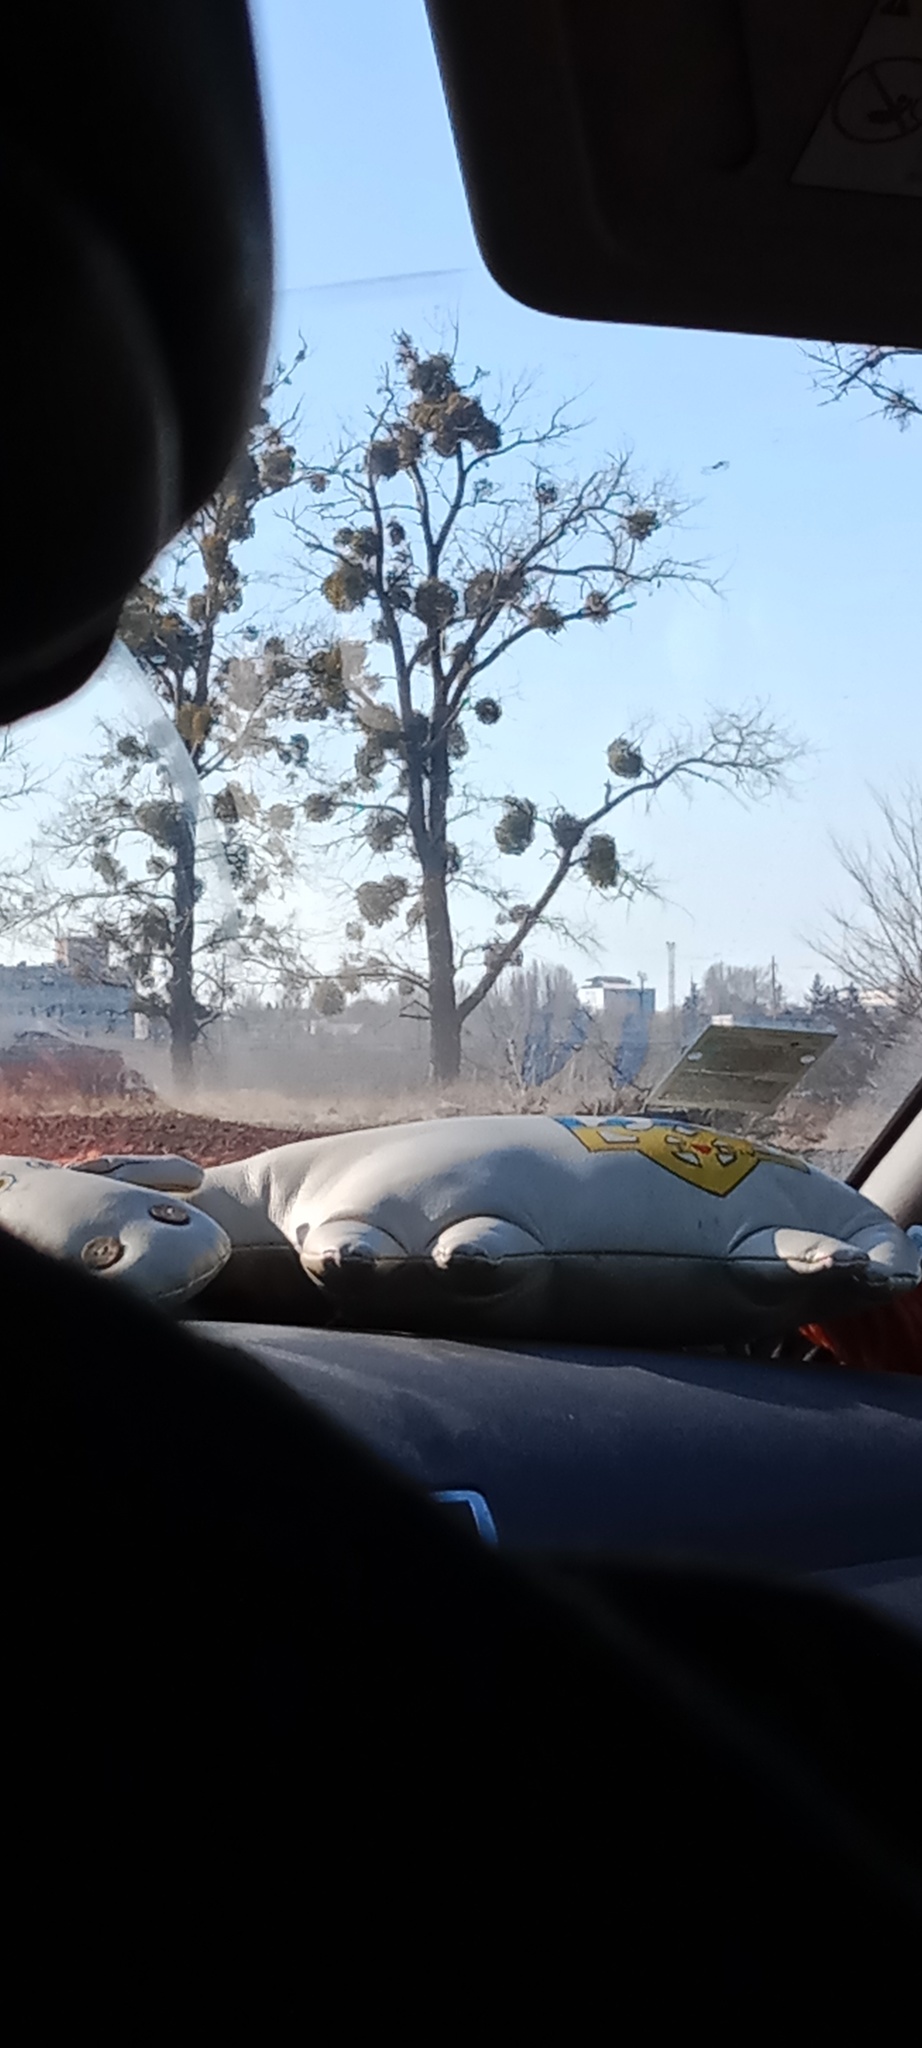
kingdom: Plantae
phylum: Tracheophyta
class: Magnoliopsida
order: Santalales
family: Viscaceae
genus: Viscum
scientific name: Viscum album
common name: Mistletoe
